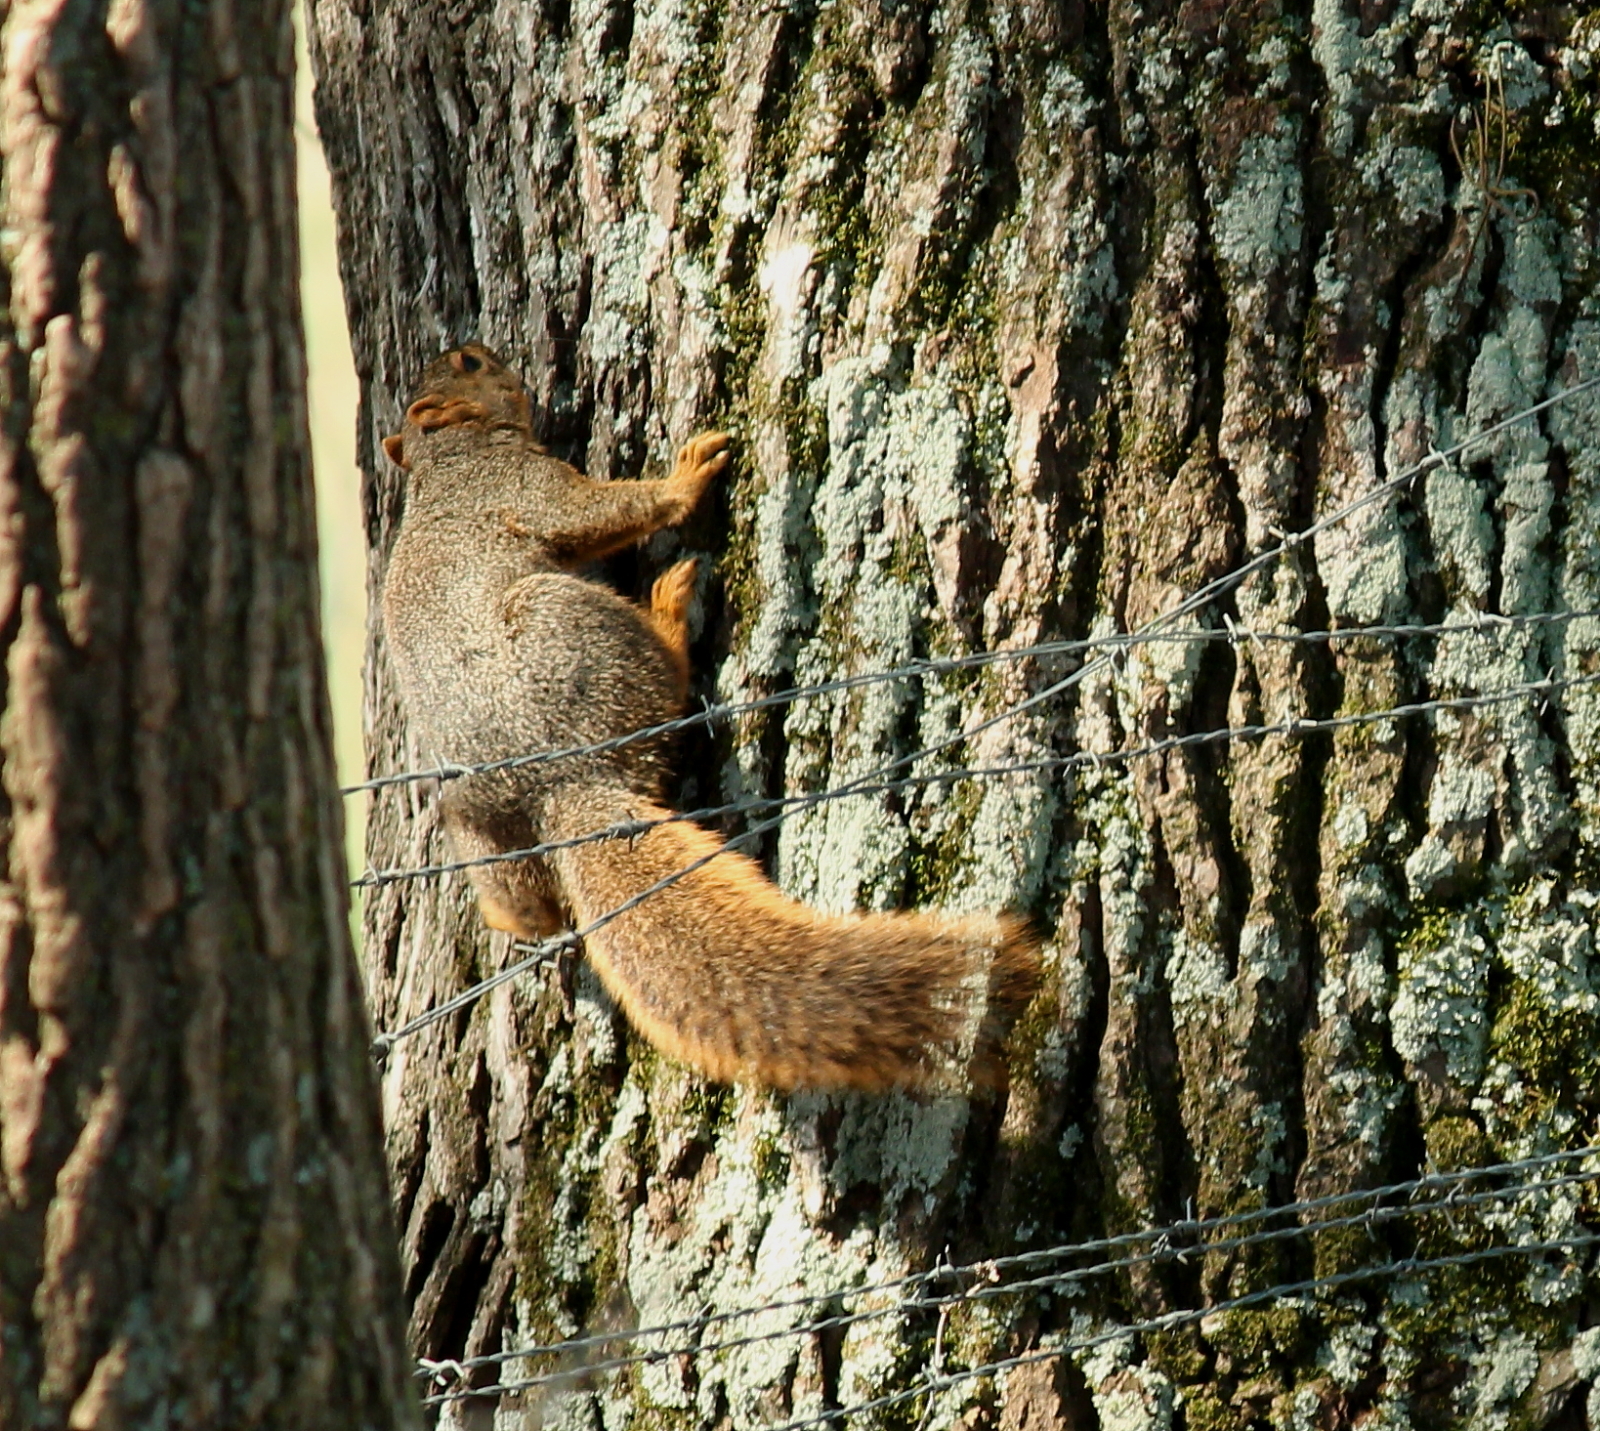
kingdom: Animalia
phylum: Chordata
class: Mammalia
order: Rodentia
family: Sciuridae
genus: Sciurus
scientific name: Sciurus niger
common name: Fox squirrel
